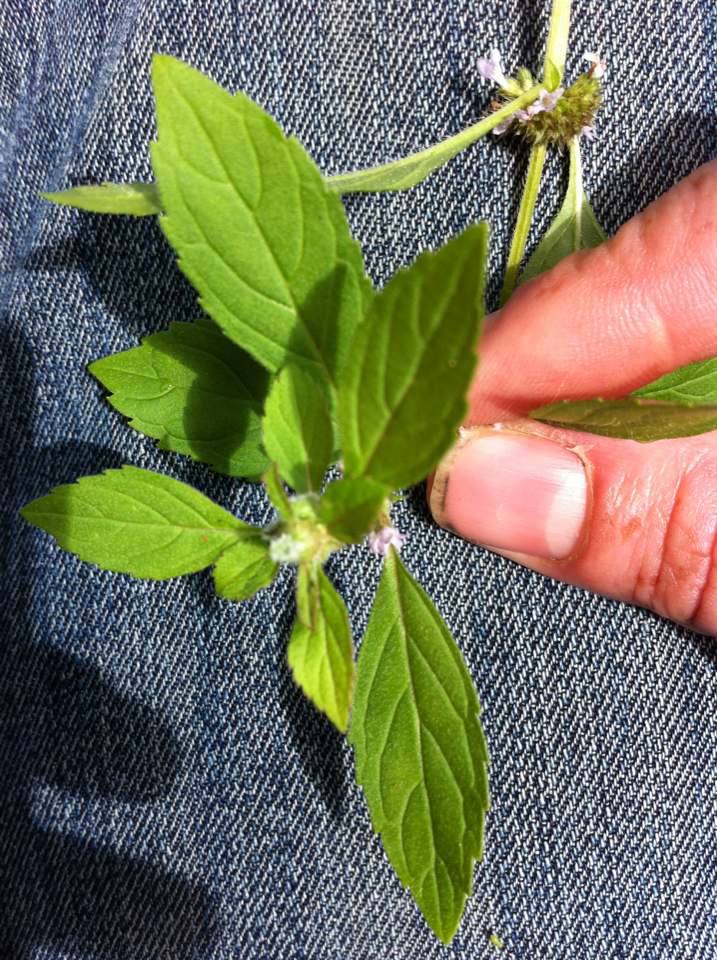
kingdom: Plantae
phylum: Tracheophyta
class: Magnoliopsida
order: Lamiales
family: Lamiaceae
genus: Mentha
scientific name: Mentha arvensis
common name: Corn mint
